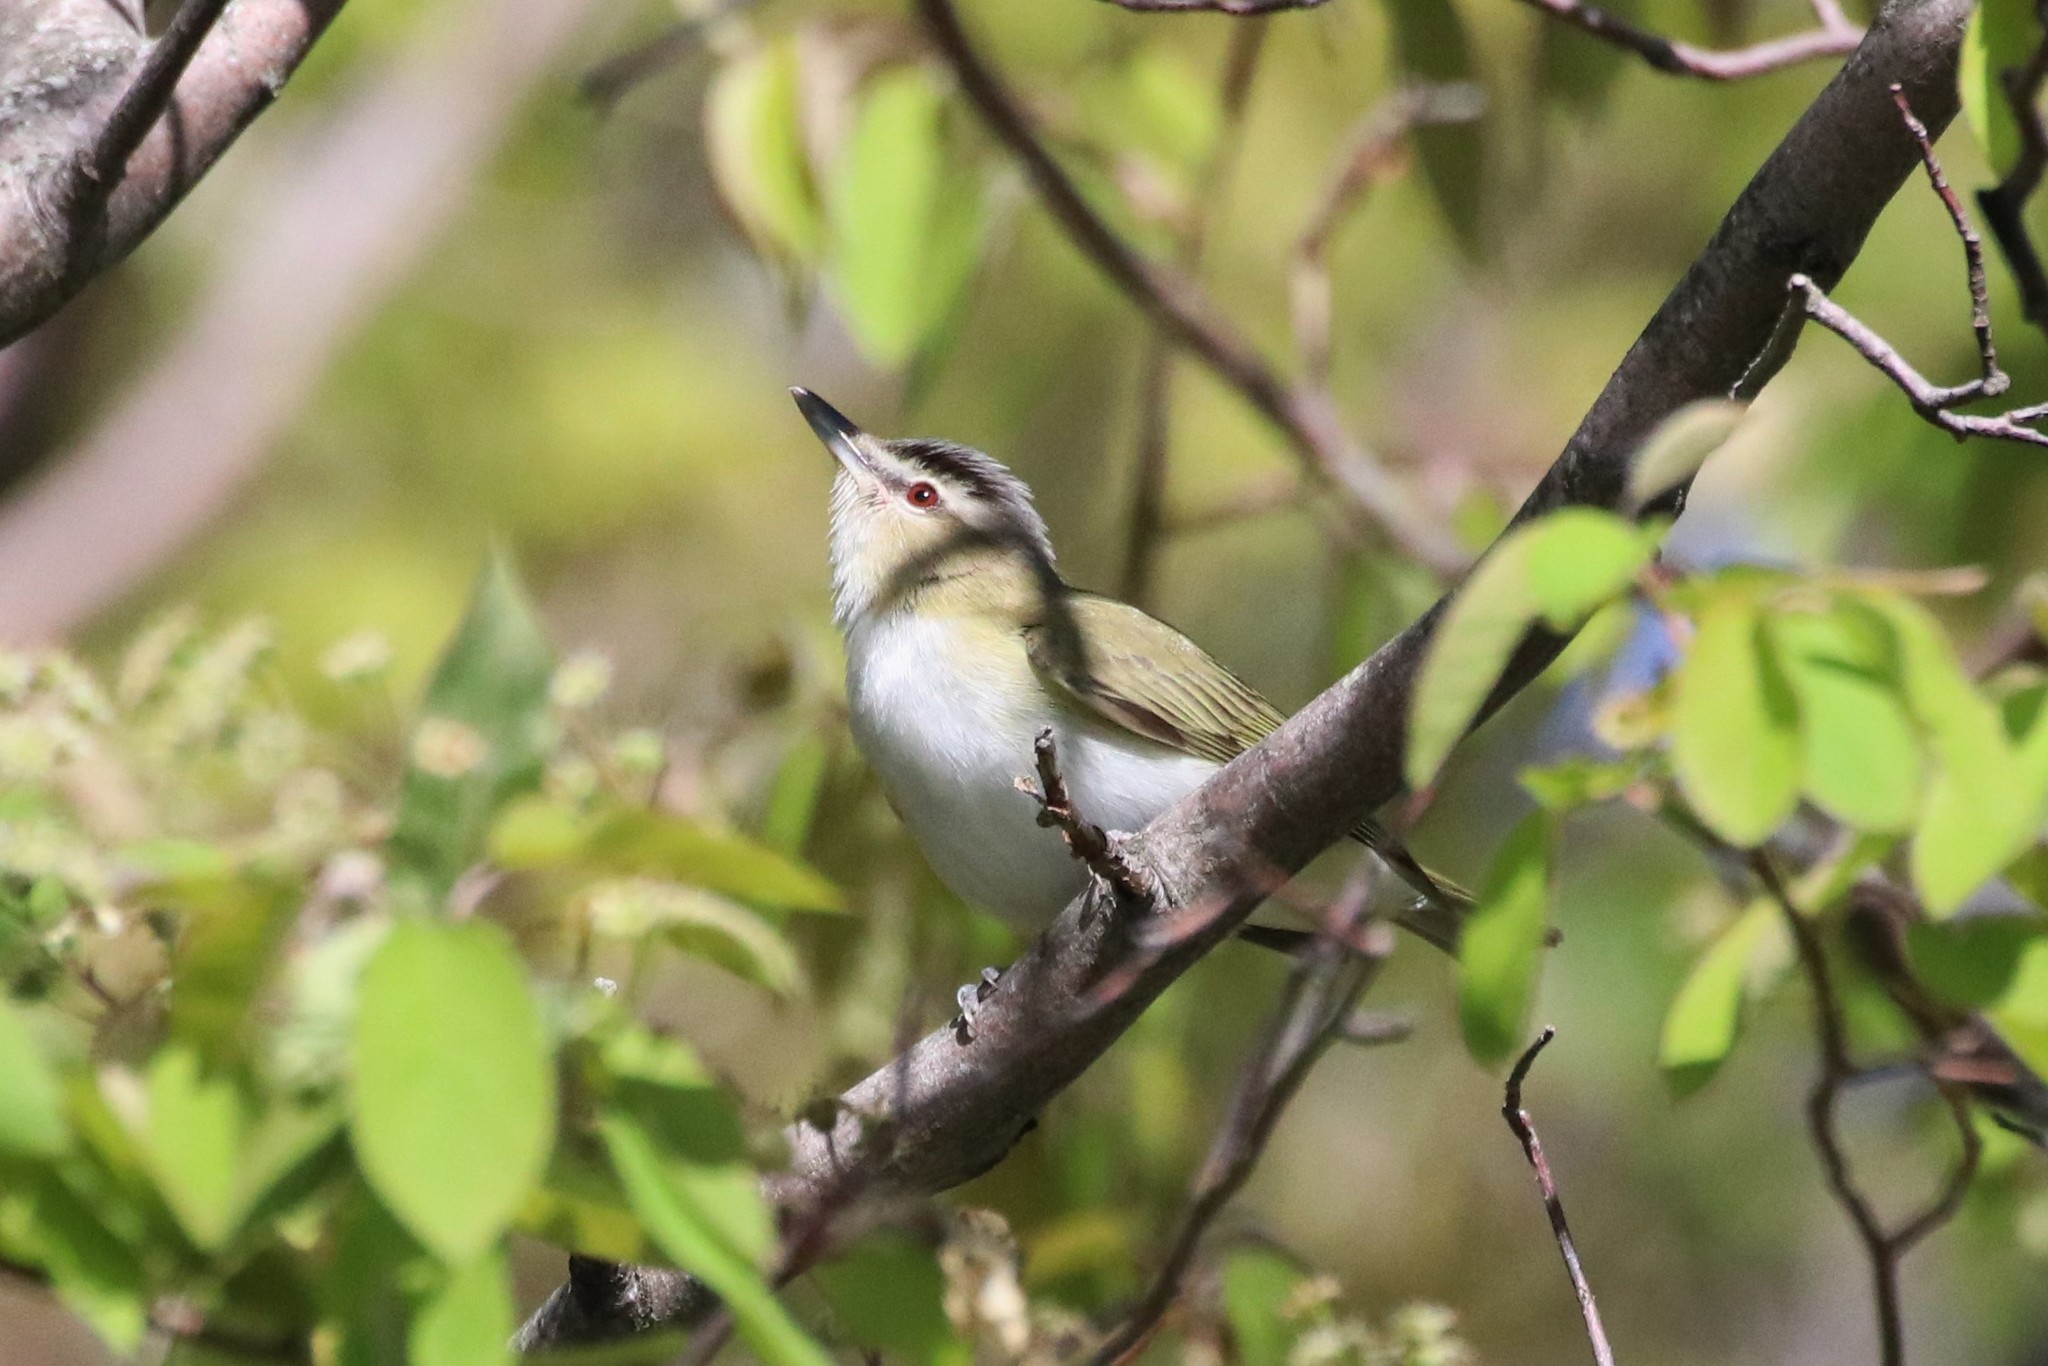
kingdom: Animalia
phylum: Chordata
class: Aves
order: Passeriformes
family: Vireonidae
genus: Vireo
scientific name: Vireo olivaceus
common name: Red-eyed vireo
